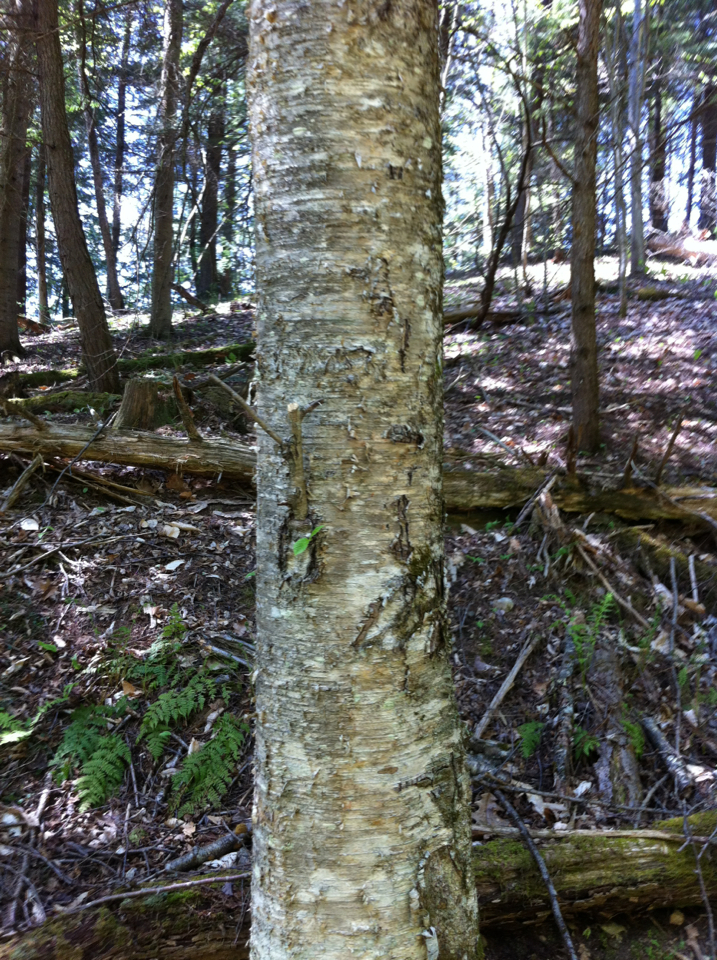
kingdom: Plantae
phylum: Tracheophyta
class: Magnoliopsida
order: Fagales
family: Betulaceae
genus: Betula
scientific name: Betula alleghaniensis
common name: Yellow birch
